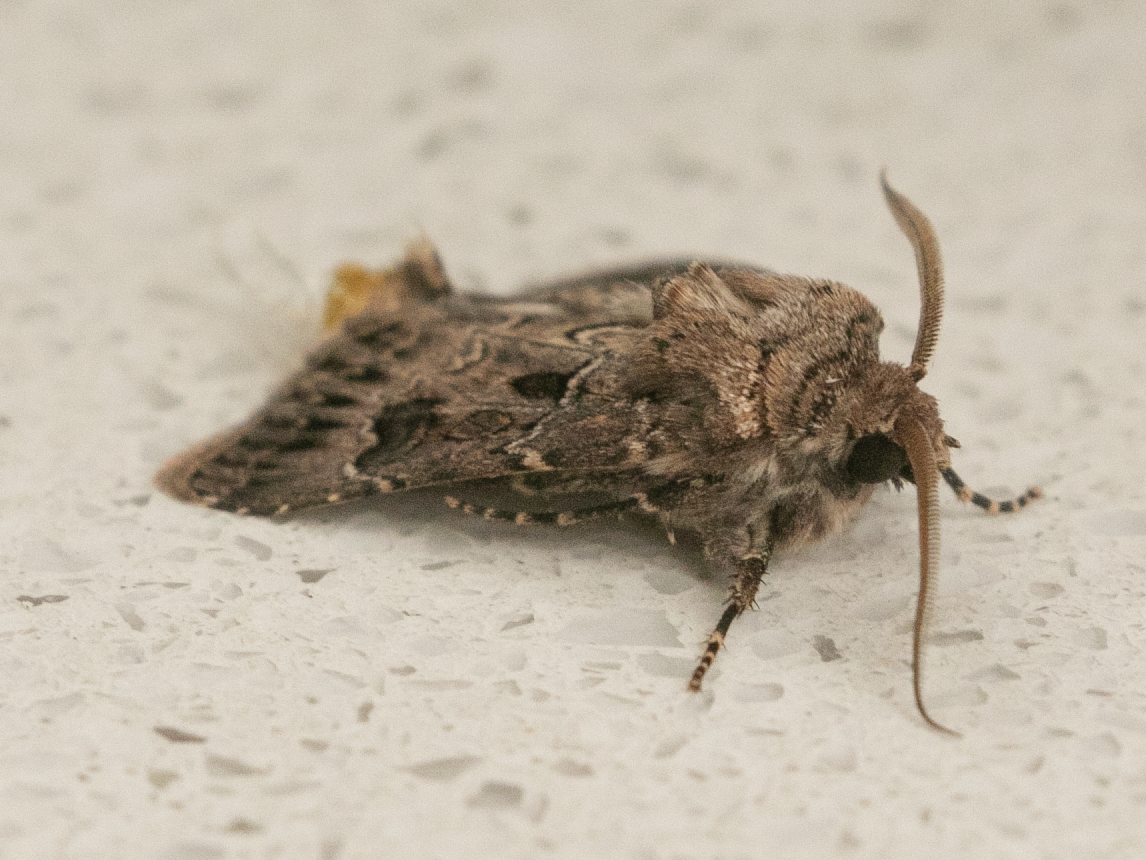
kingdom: Animalia
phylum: Arthropoda
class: Insecta
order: Lepidoptera
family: Noctuidae
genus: Agrotis
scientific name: Agrotis bigramma
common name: Great dart
